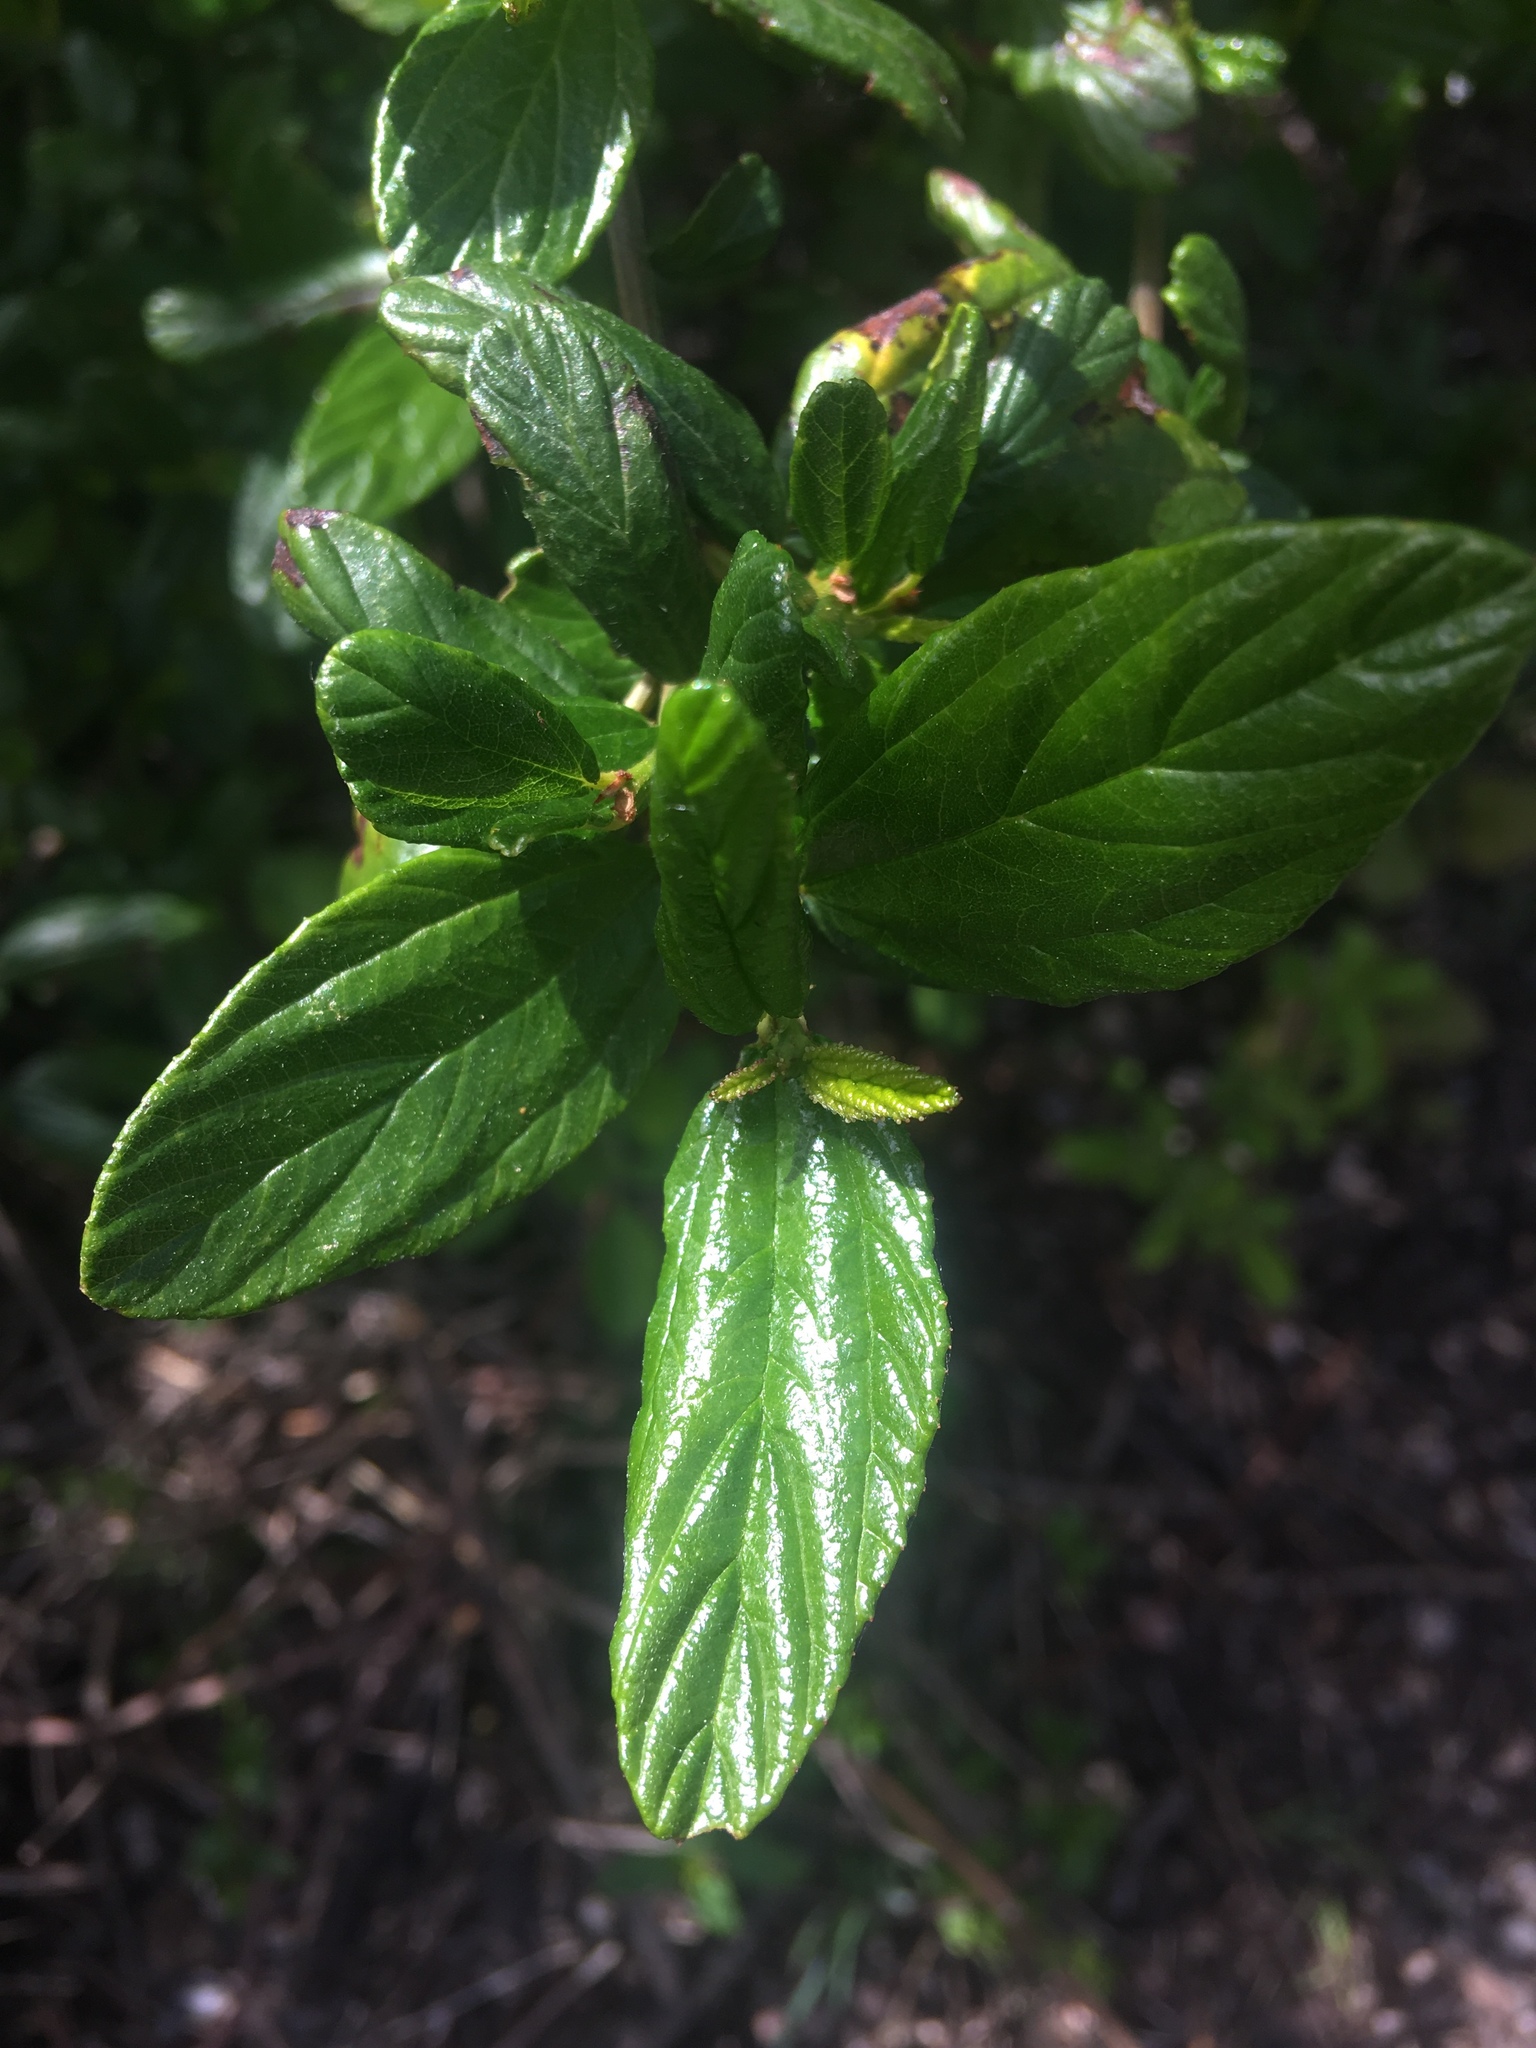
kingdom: Plantae
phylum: Tracheophyta
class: Magnoliopsida
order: Rosales
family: Rhamnaceae
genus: Ceanothus
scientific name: Ceanothus thyrsiflorus
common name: California-lilac
